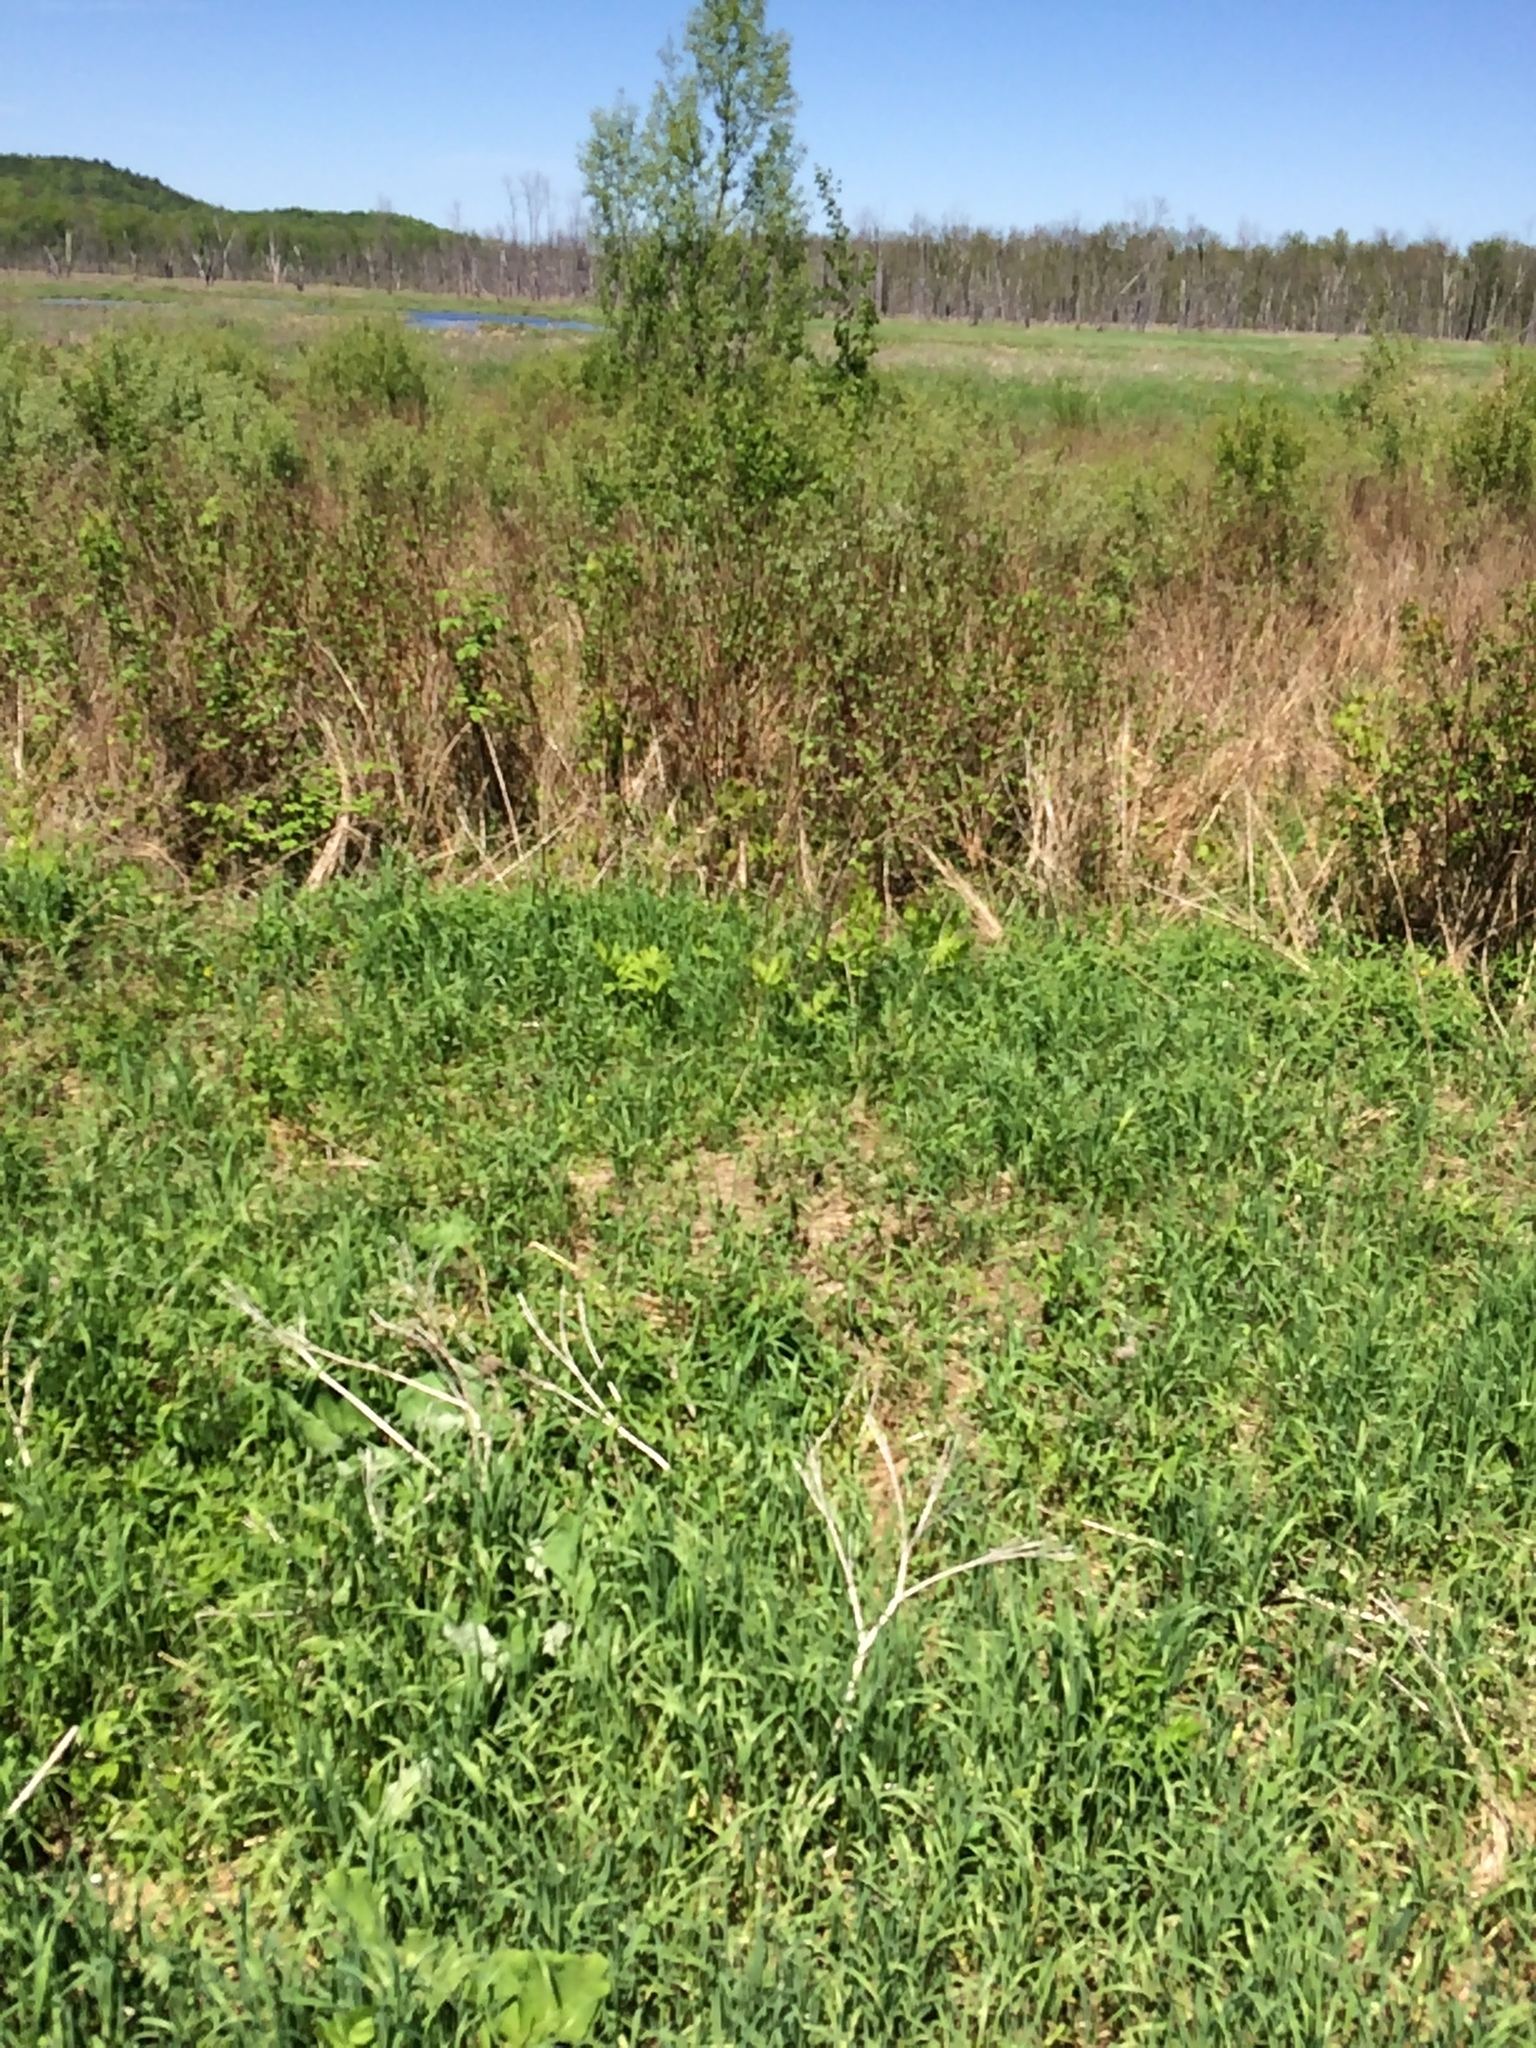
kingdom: Plantae
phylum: Tracheophyta
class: Polypodiopsida
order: Polypodiales
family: Onocleaceae
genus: Onoclea
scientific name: Onoclea sensibilis
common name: Sensitive fern
